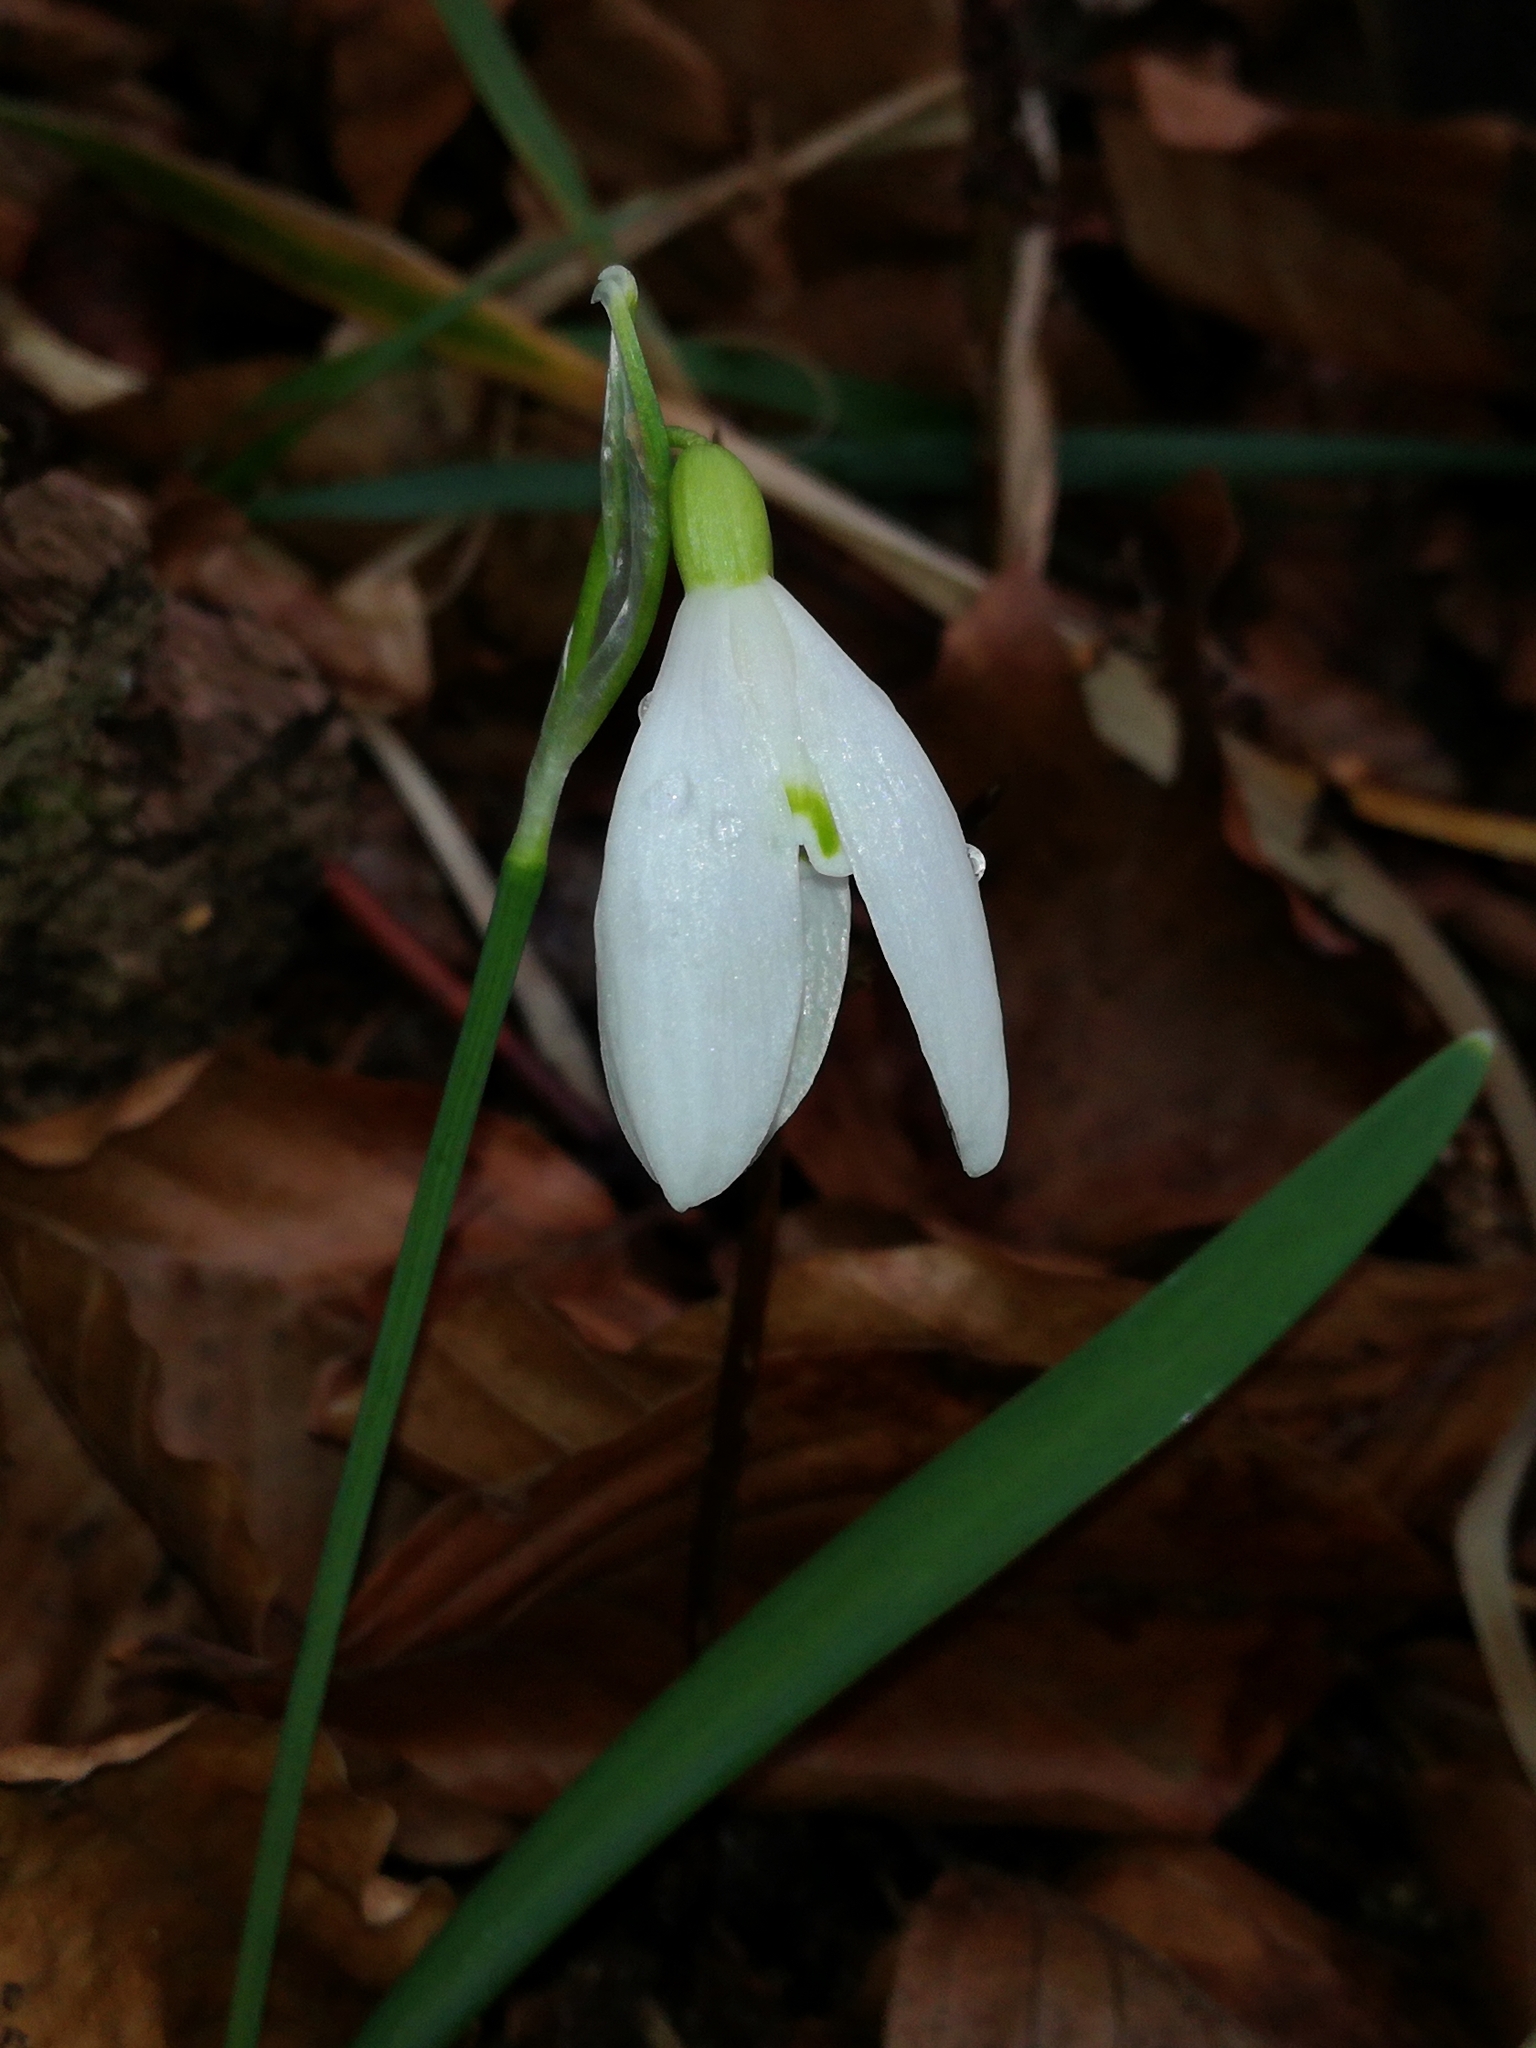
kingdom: Plantae
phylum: Tracheophyta
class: Liliopsida
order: Asparagales
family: Amaryllidaceae
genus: Galanthus
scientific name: Galanthus nivalis
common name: Snowdrop
